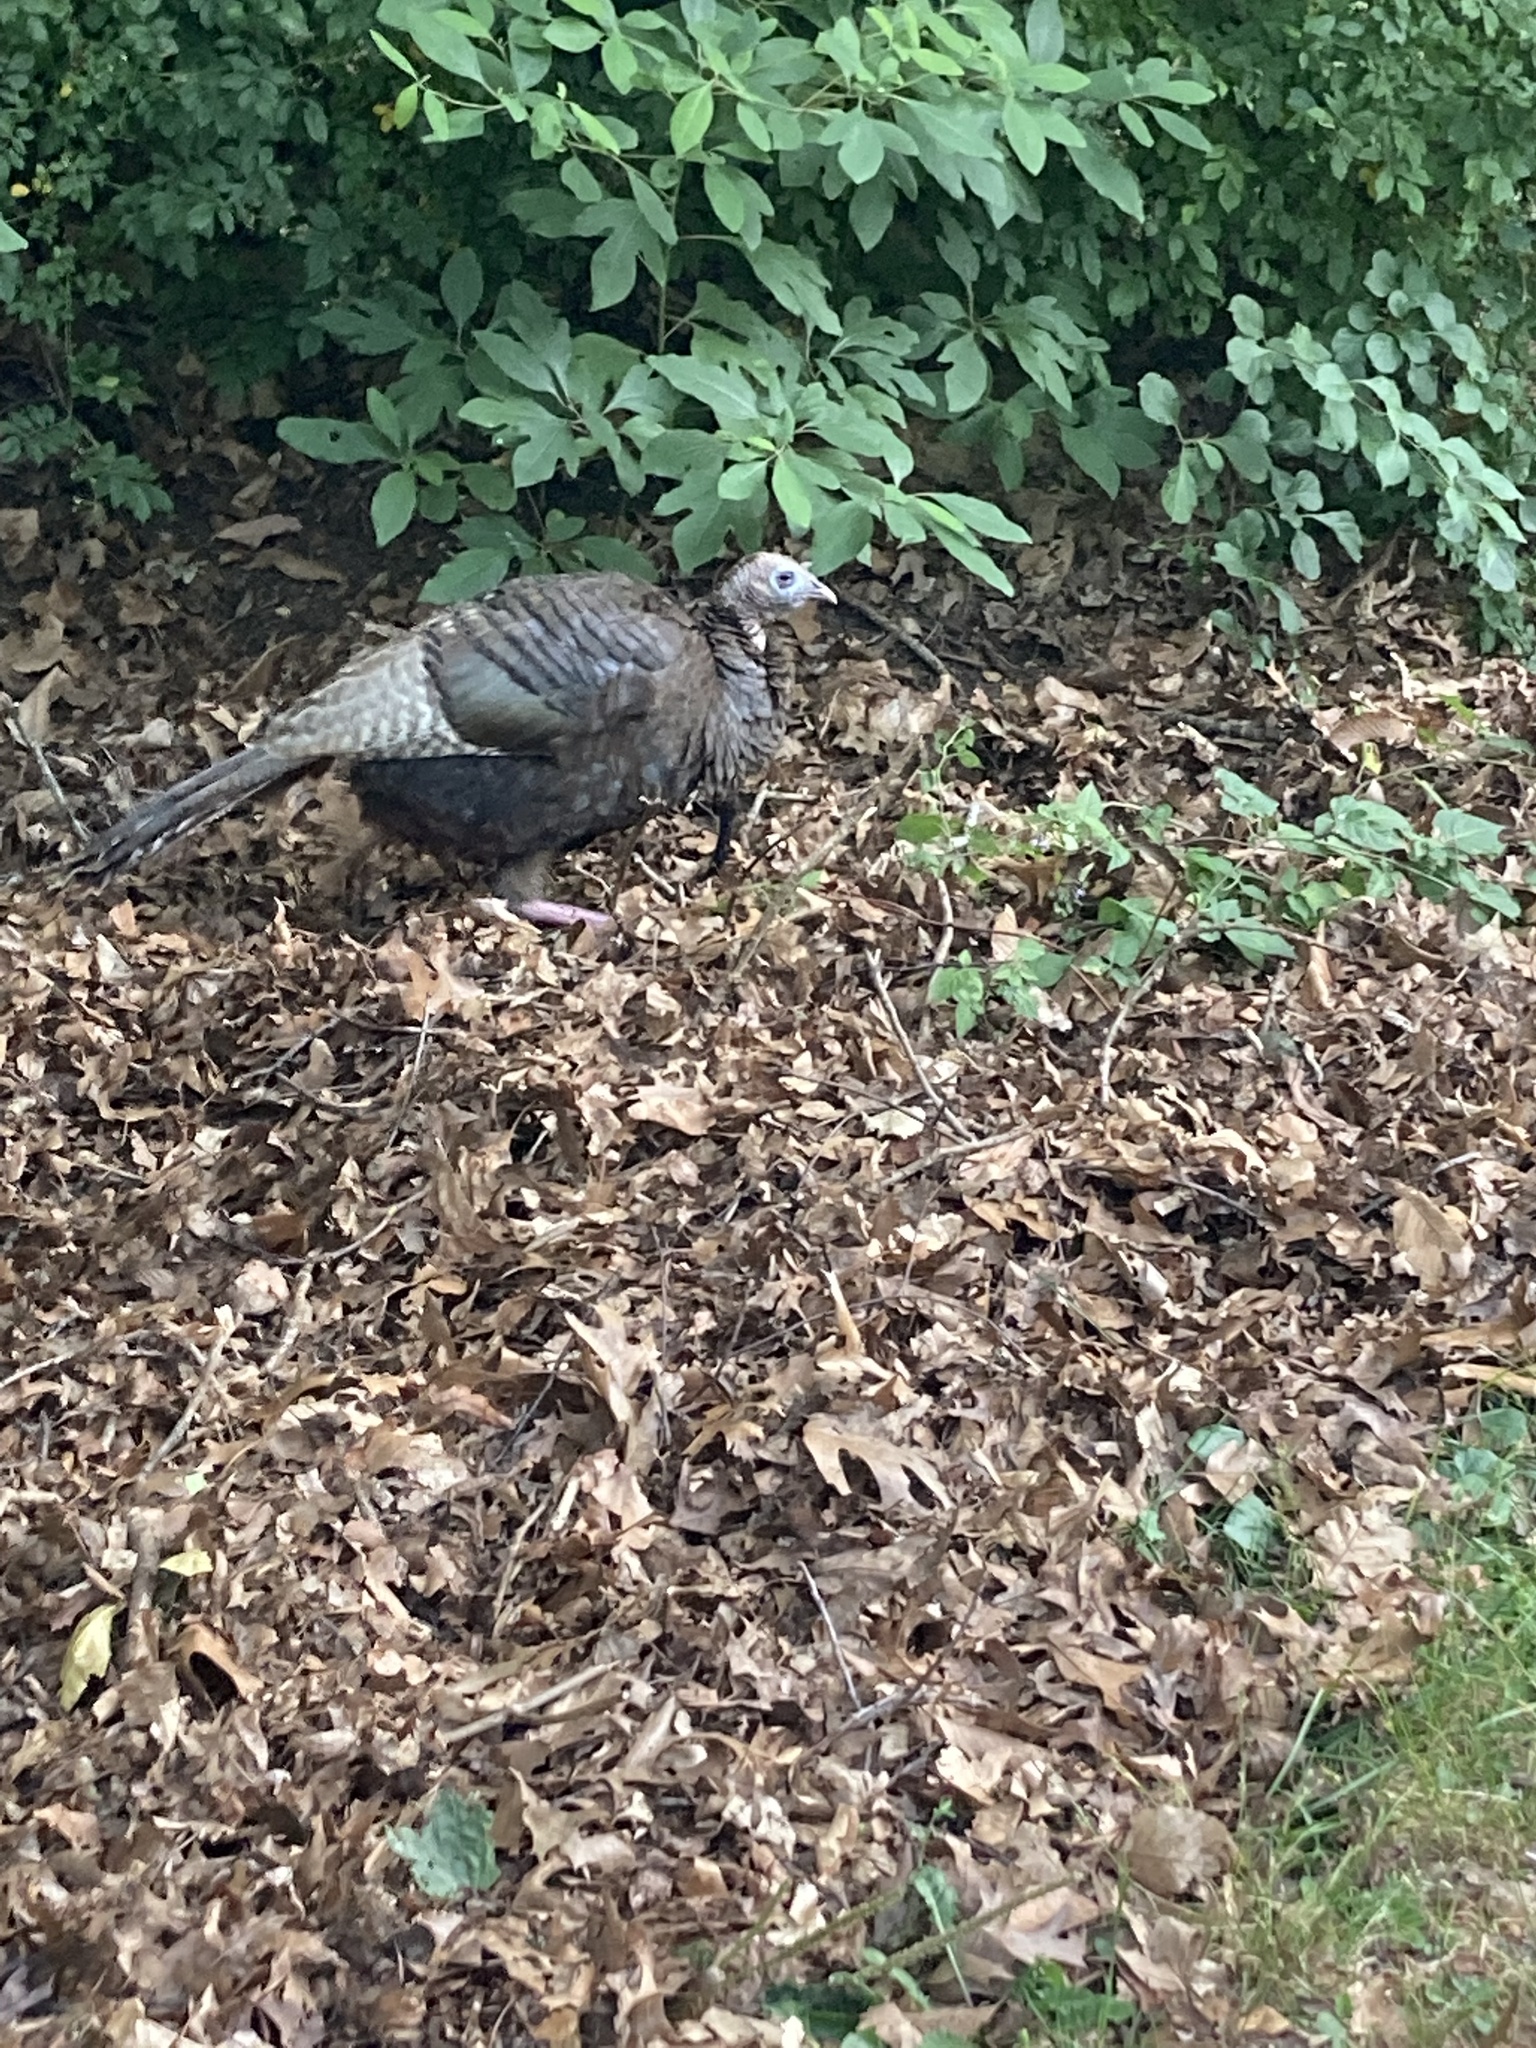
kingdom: Animalia
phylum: Chordata
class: Aves
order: Galliformes
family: Phasianidae
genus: Meleagris
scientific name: Meleagris gallopavo
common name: Wild turkey
